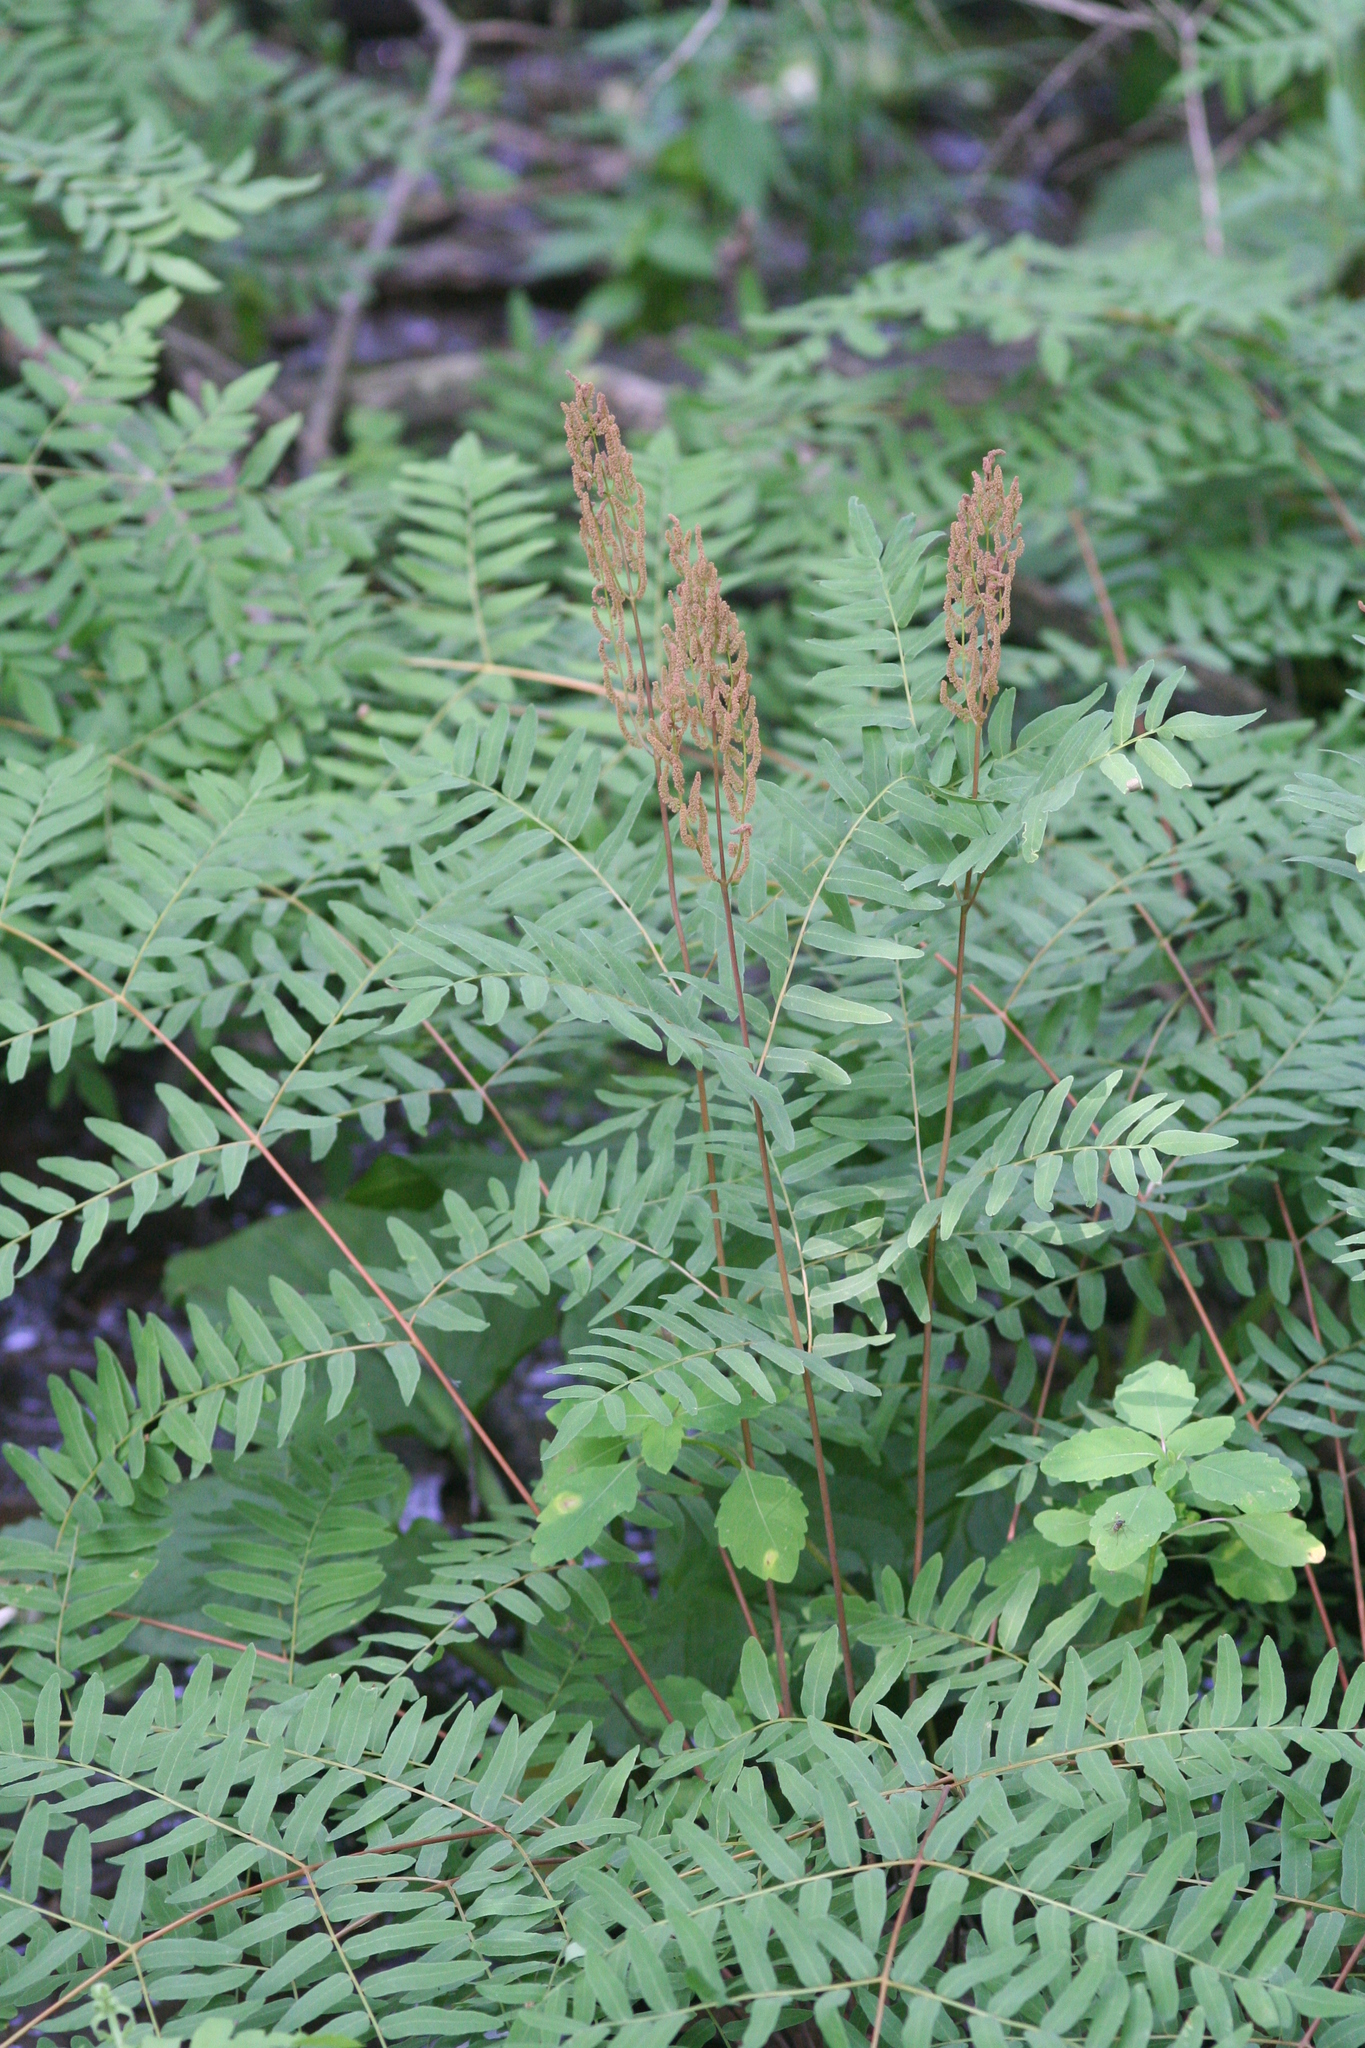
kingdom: Plantae
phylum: Tracheophyta
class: Polypodiopsida
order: Osmundales
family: Osmundaceae
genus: Osmunda
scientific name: Osmunda spectabilis
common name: American royal fern
